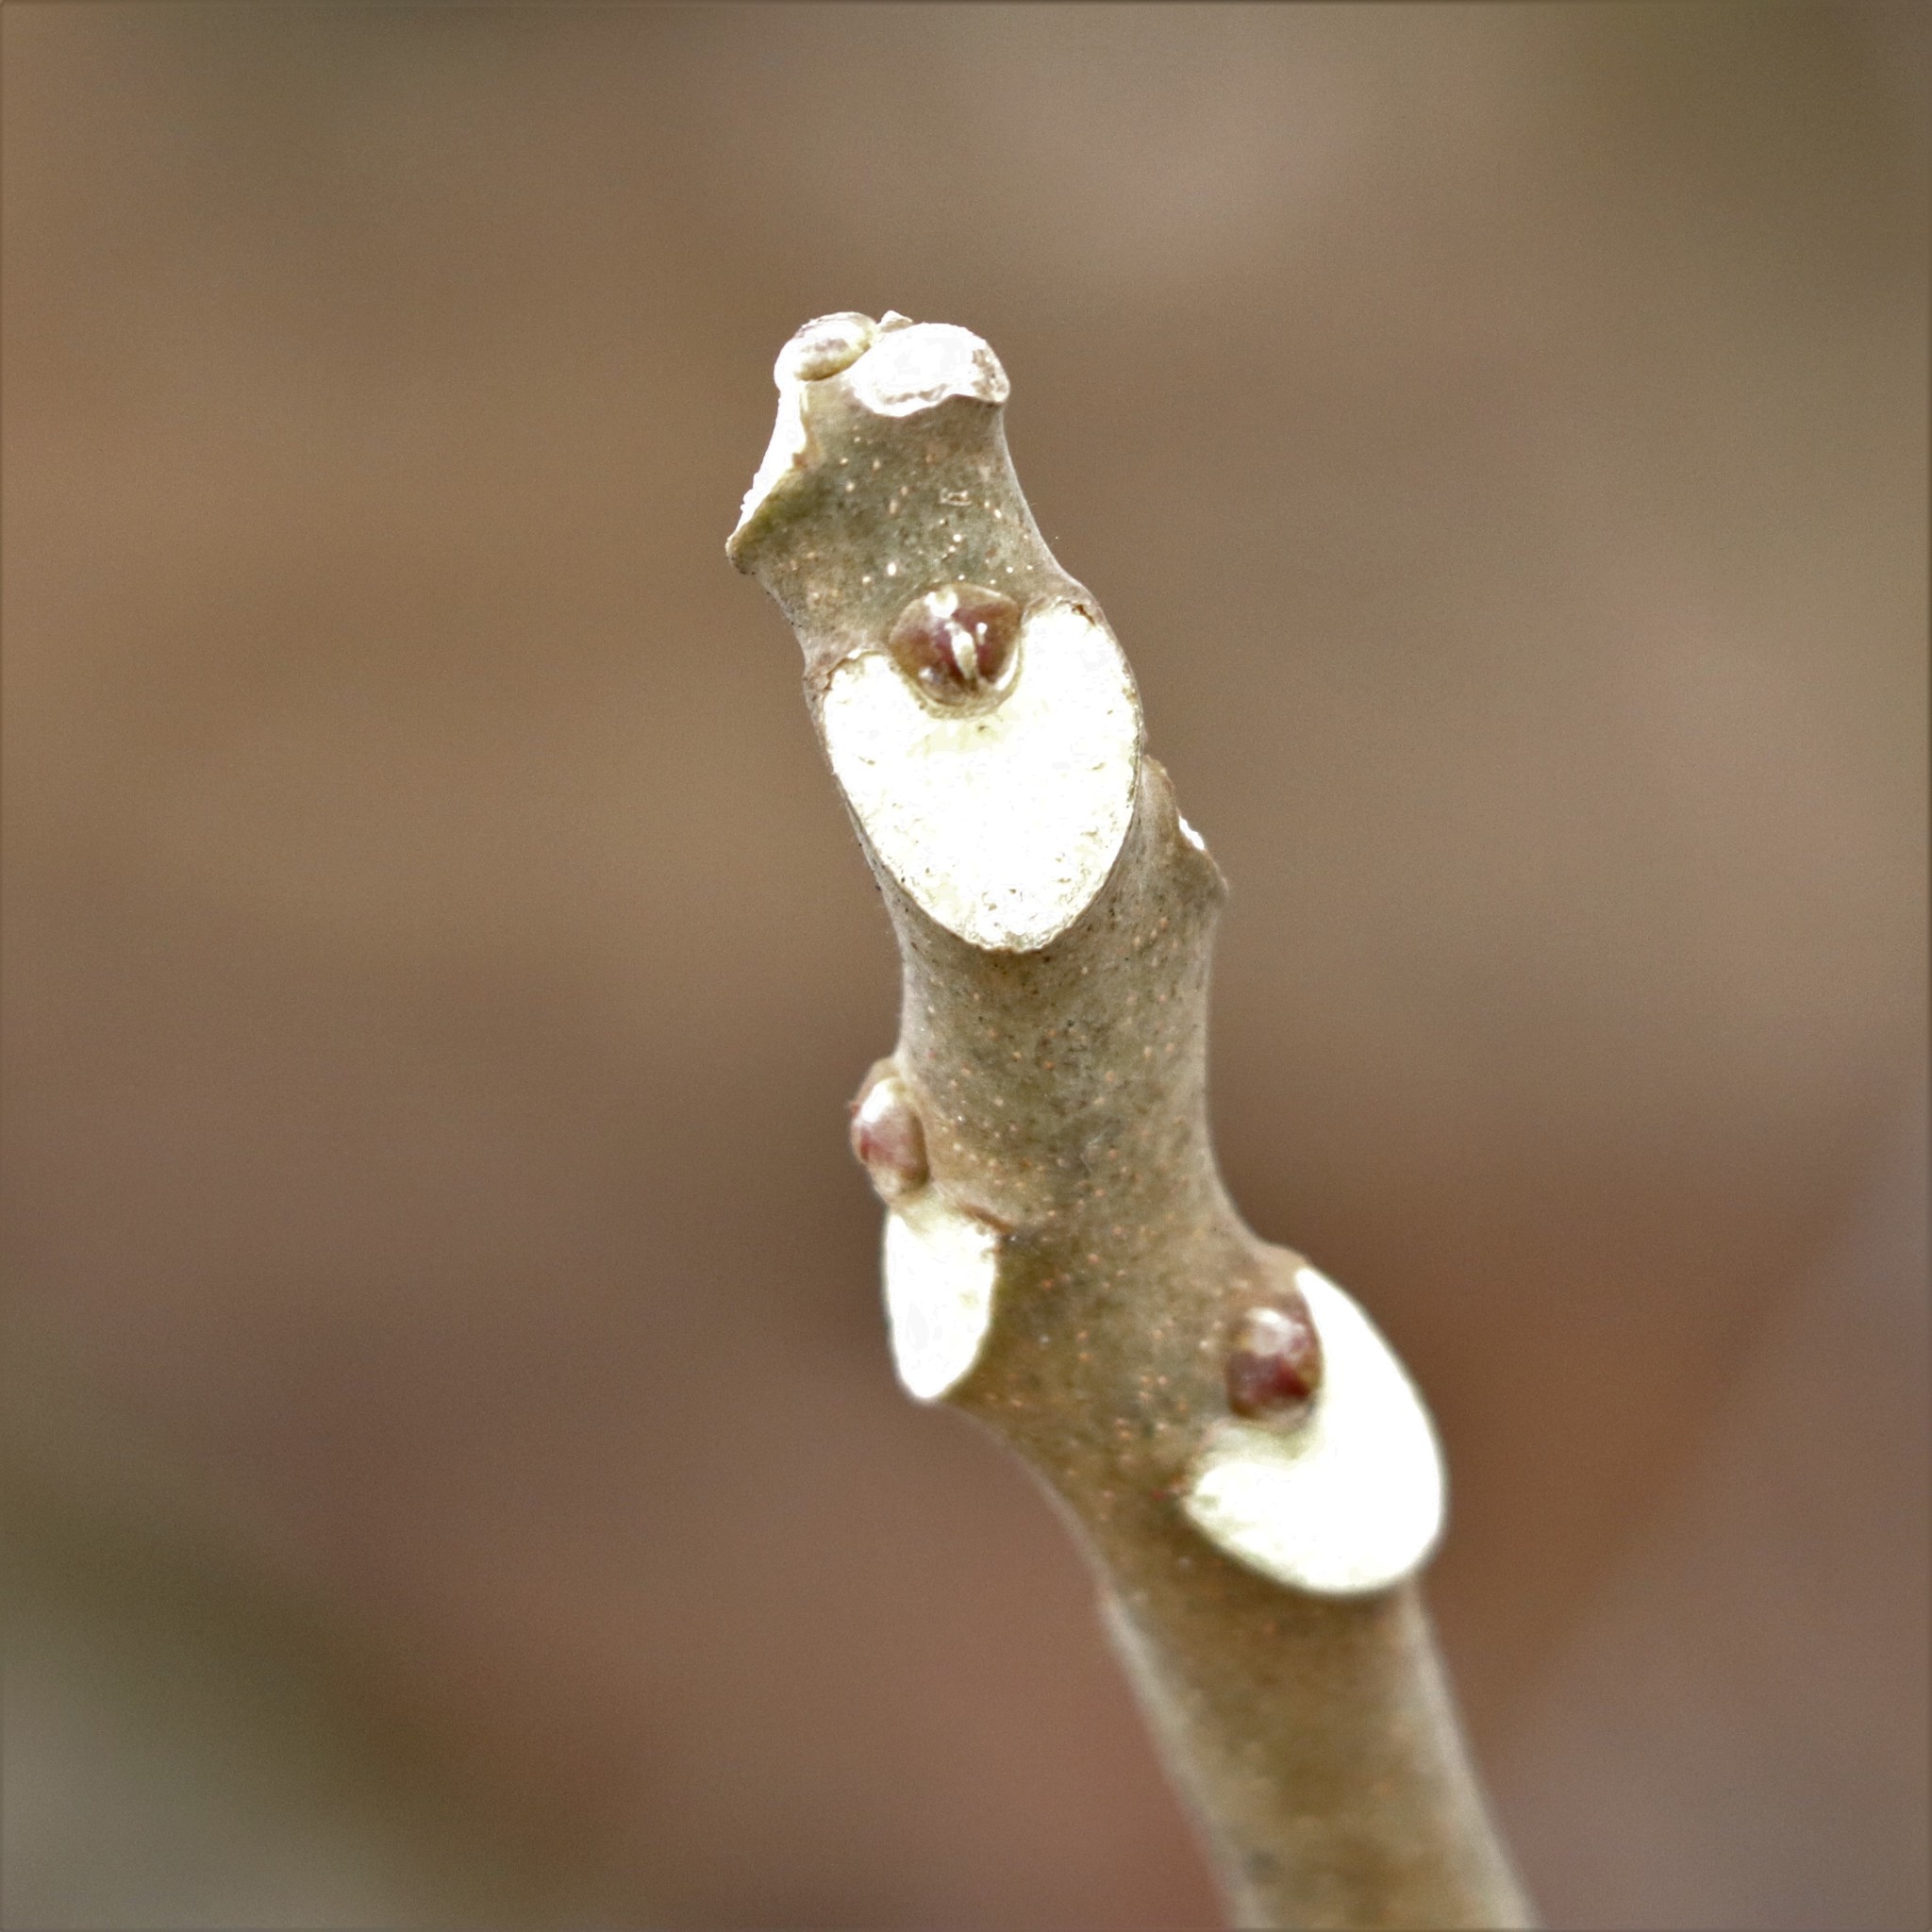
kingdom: Plantae
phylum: Tracheophyta
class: Magnoliopsida
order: Sapindales
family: Simaroubaceae
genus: Ailanthus
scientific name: Ailanthus altissima
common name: Tree-of-heaven
